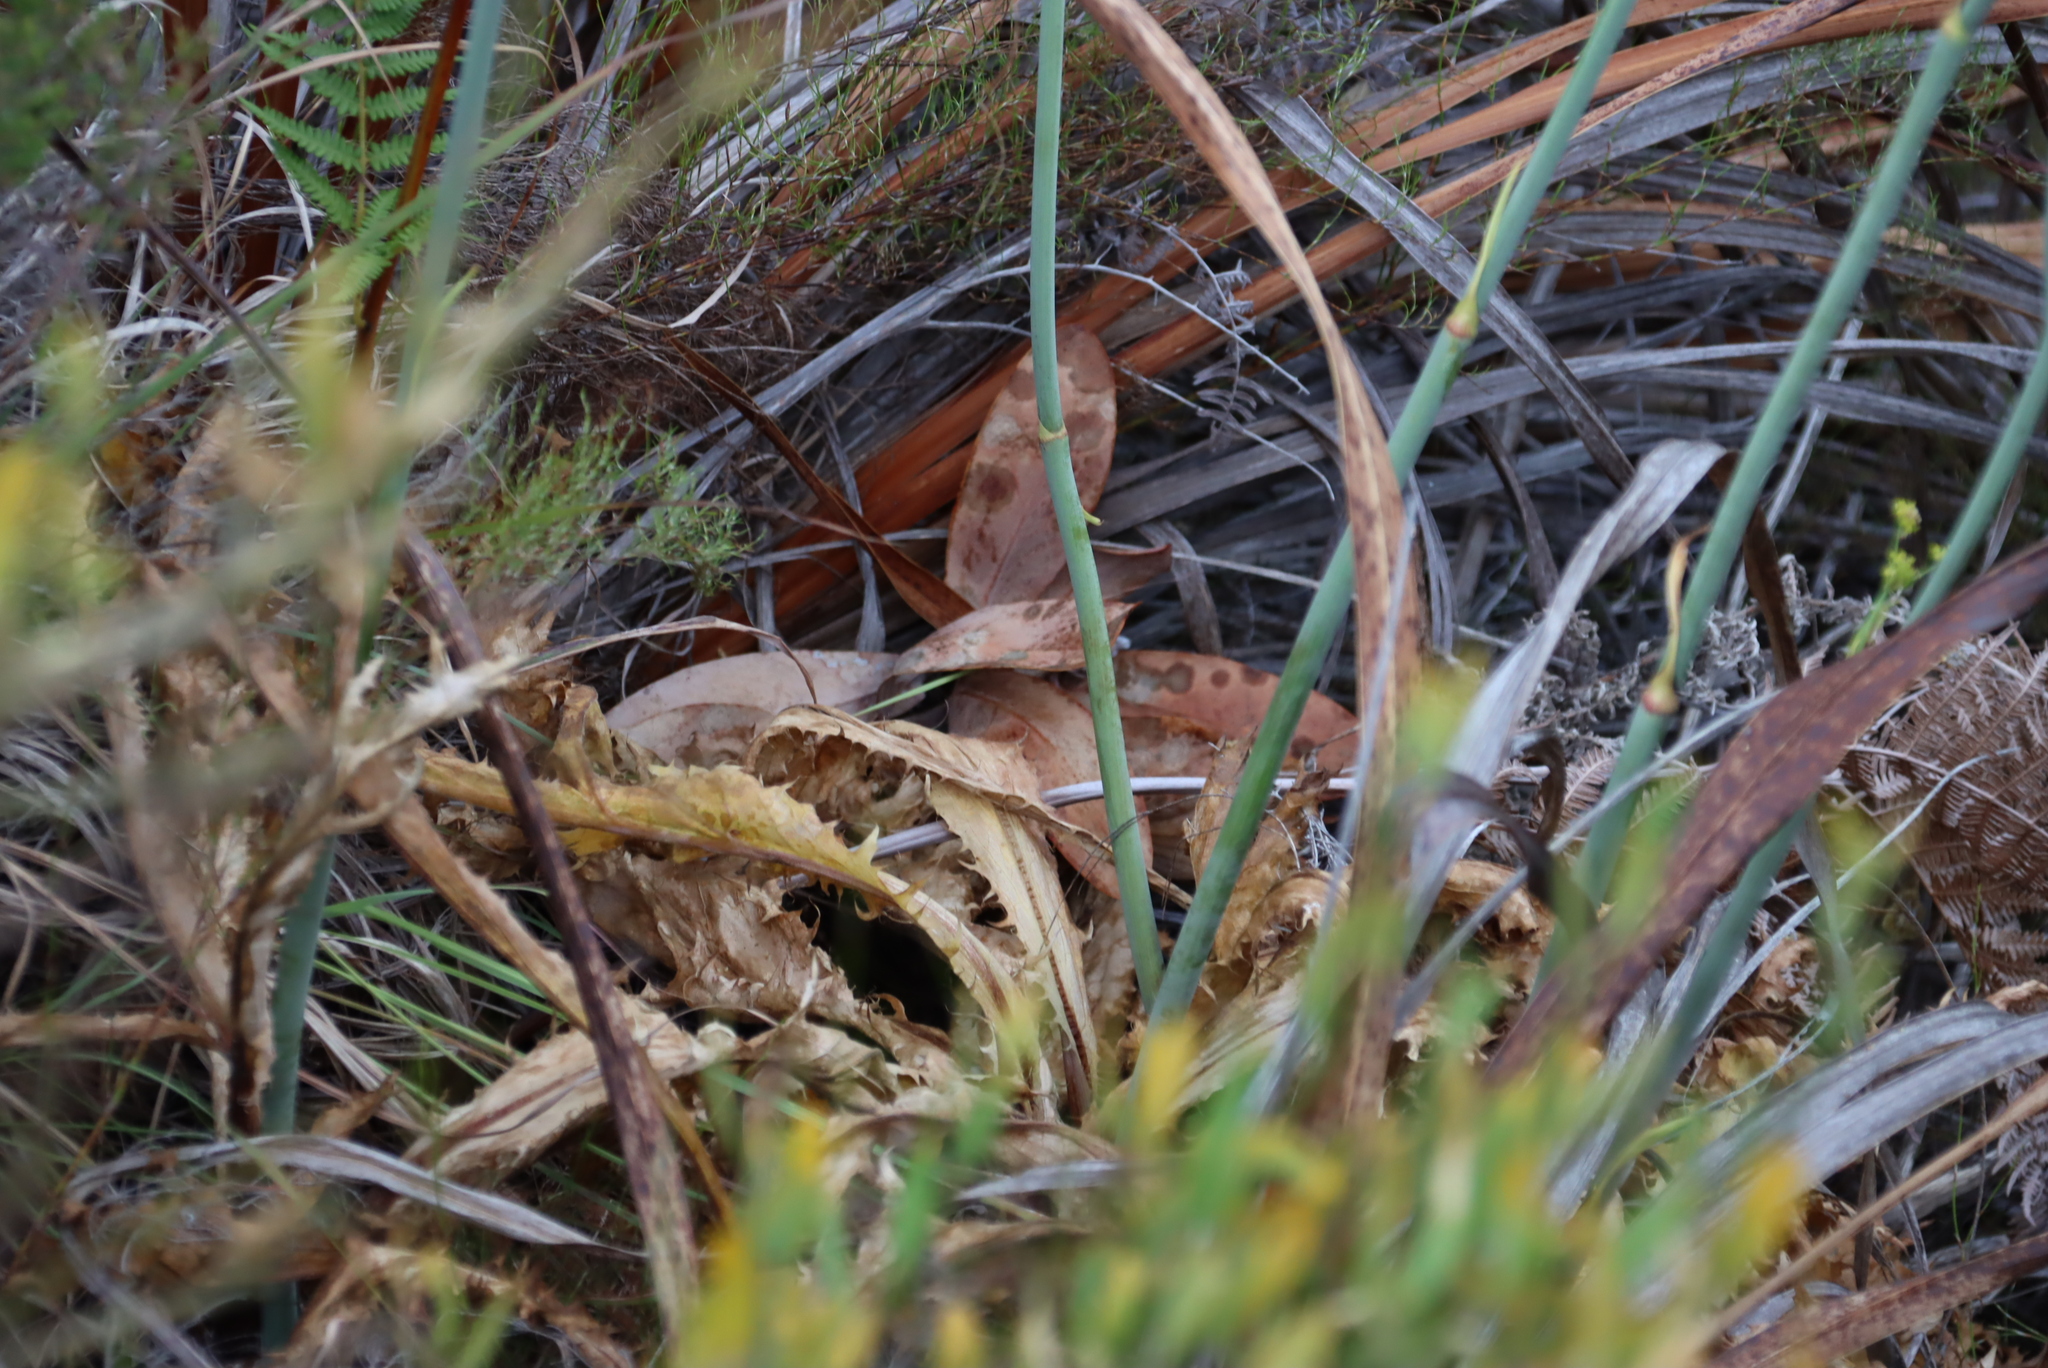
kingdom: Plantae
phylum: Tracheophyta
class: Magnoliopsida
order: Apiales
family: Apiaceae
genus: Lichtensteinia
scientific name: Lichtensteinia lacera
